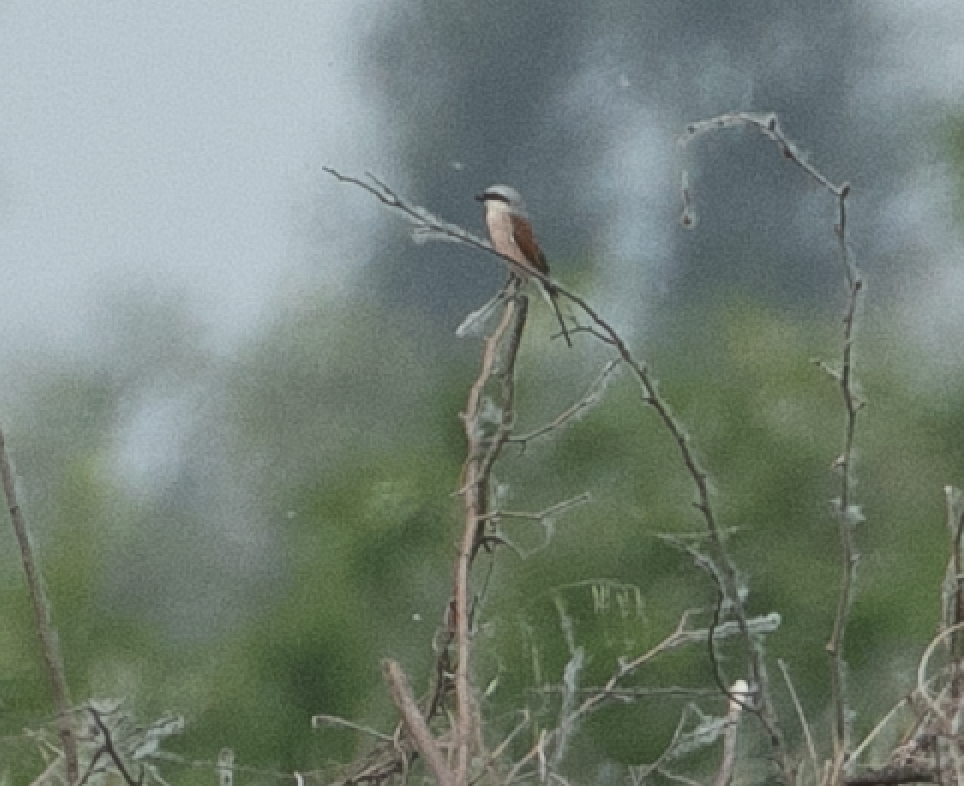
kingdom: Animalia
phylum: Chordata
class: Aves
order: Passeriformes
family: Laniidae
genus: Lanius
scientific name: Lanius collurio
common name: Red-backed shrike
